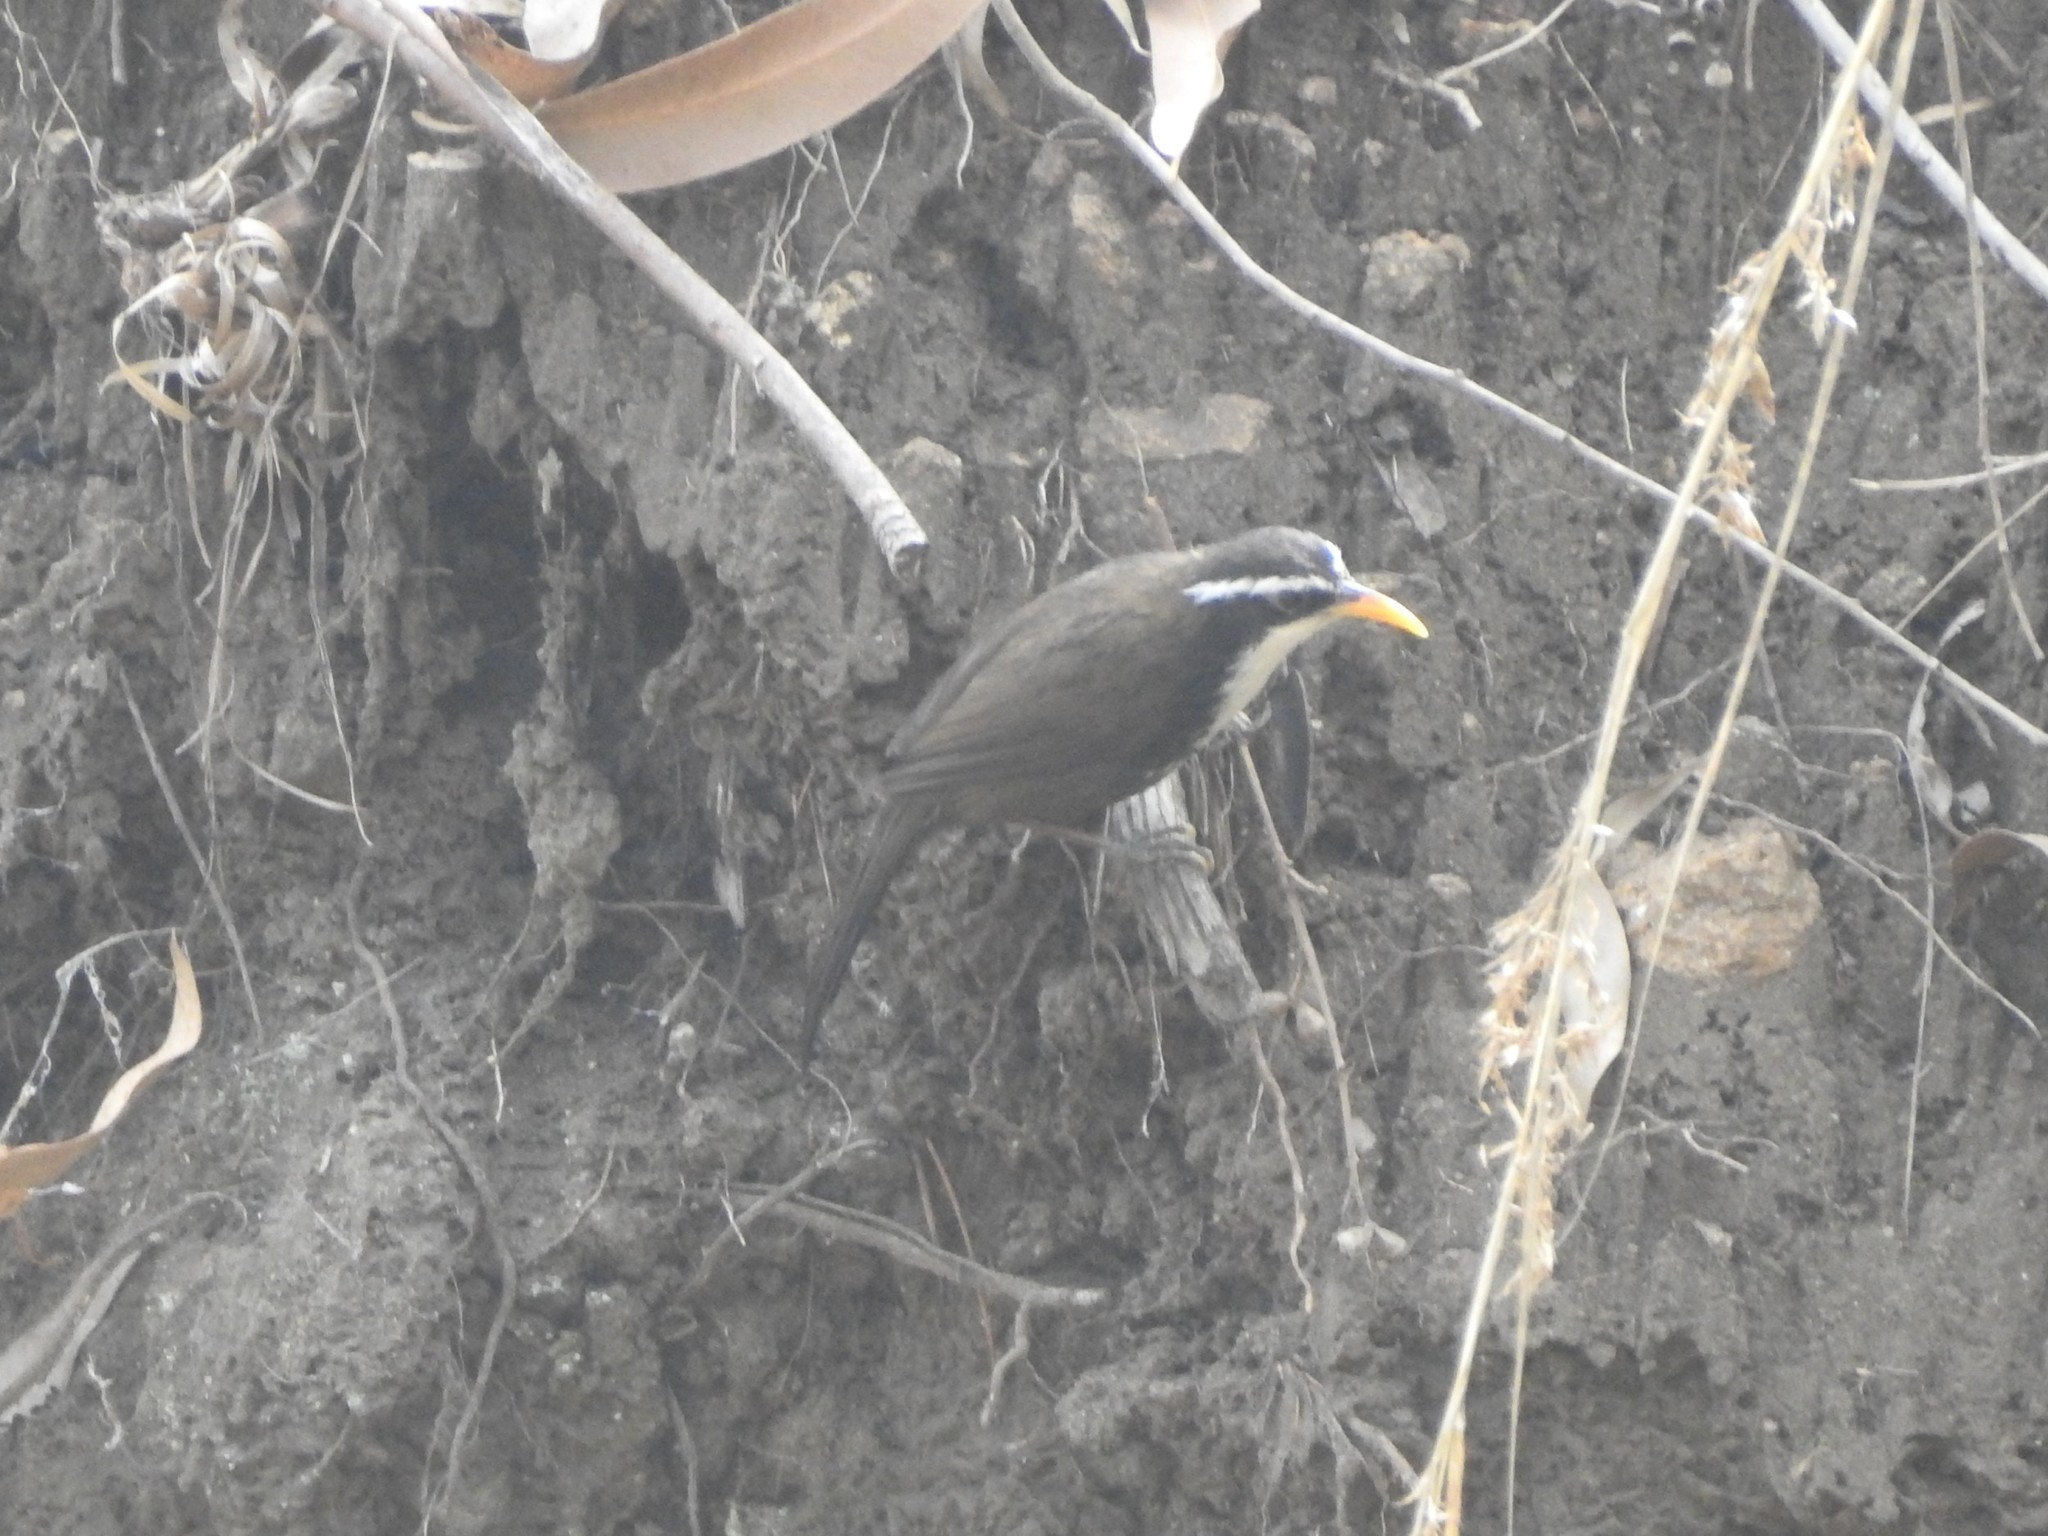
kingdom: Animalia
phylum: Chordata
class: Aves
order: Passeriformes
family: Timaliidae
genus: Pomatorhinus
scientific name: Pomatorhinus horsfieldii
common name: Indian scimitar babbler
